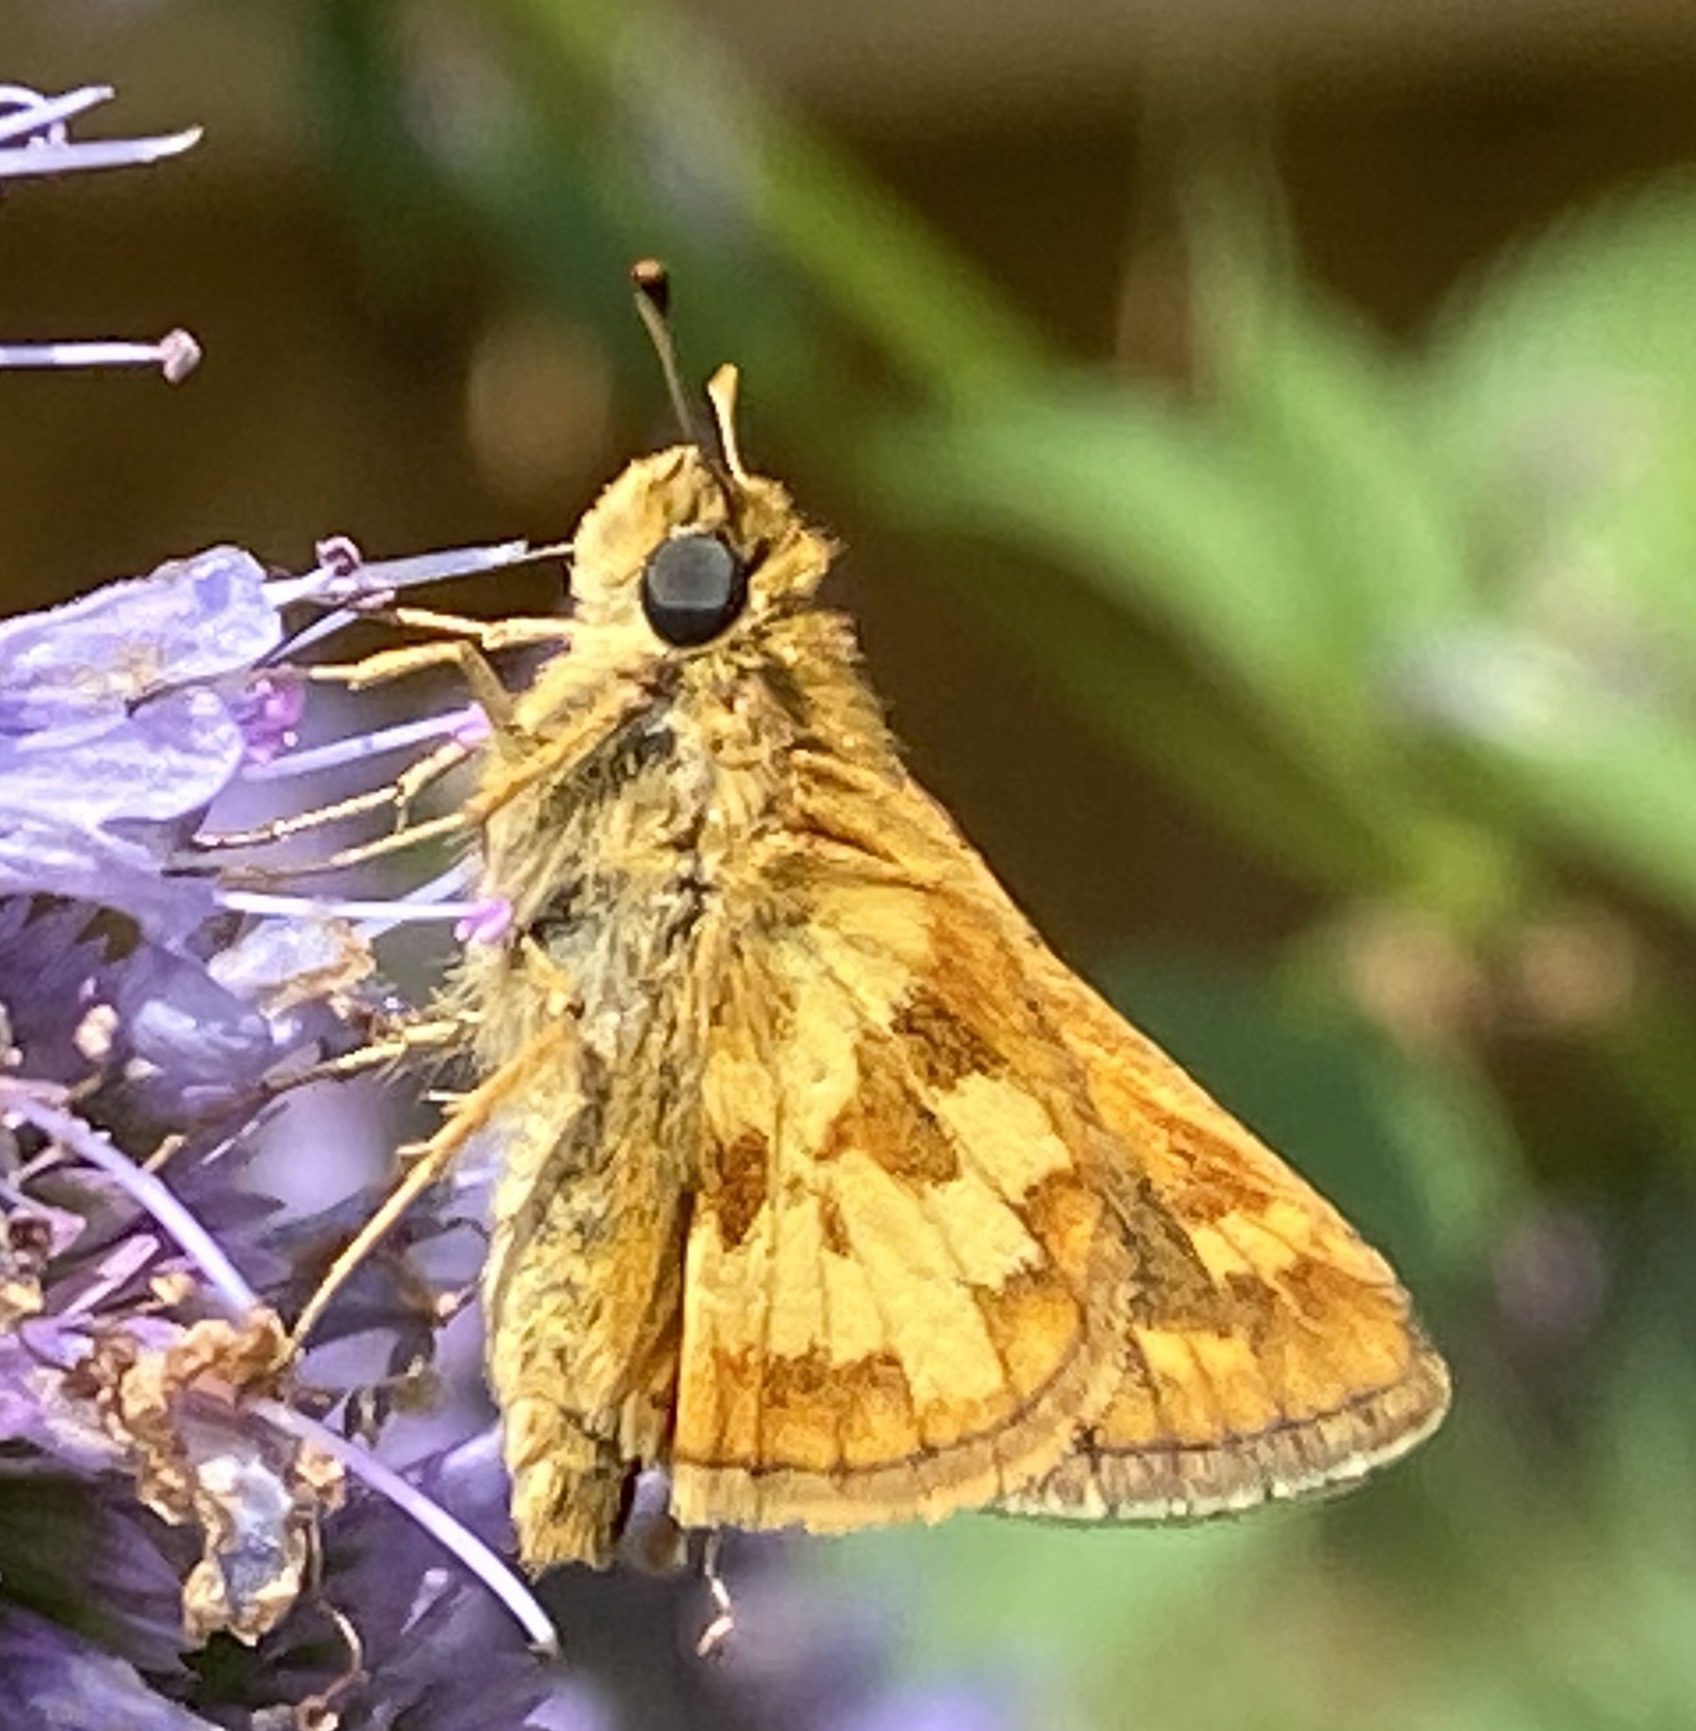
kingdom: Animalia
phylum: Arthropoda
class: Insecta
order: Lepidoptera
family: Hesperiidae
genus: Polites
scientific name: Polites coras
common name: Peck's skipper
